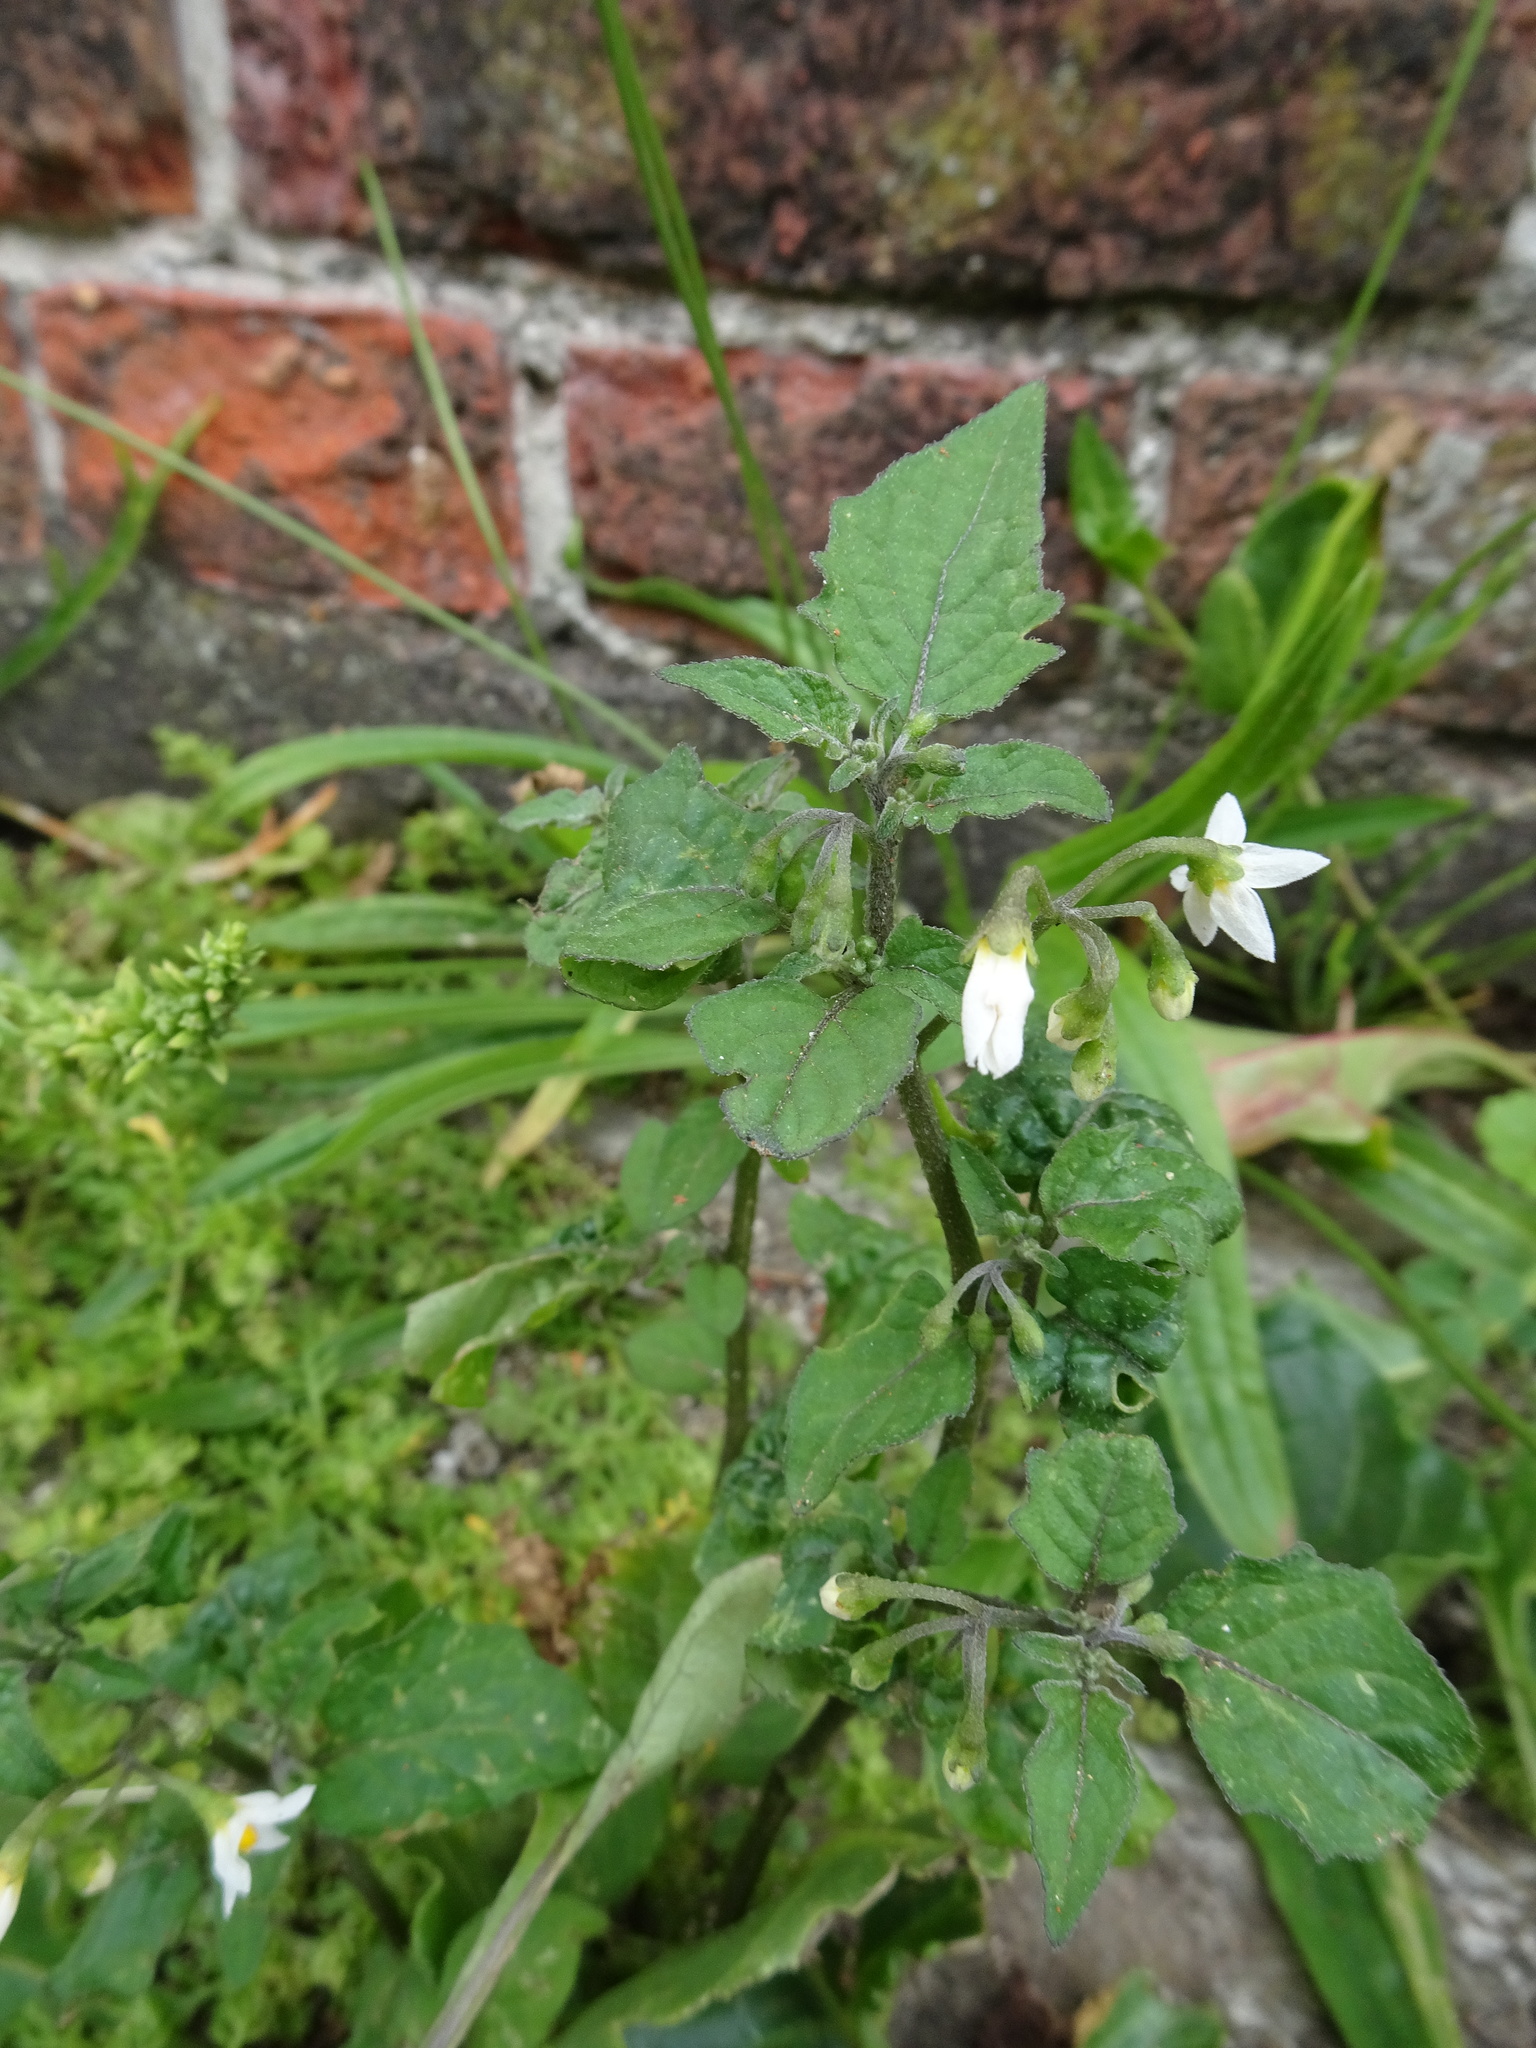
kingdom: Plantae
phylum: Tracheophyta
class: Magnoliopsida
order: Solanales
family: Solanaceae
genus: Solanum
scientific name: Solanum nigrum
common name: Black nightshade
